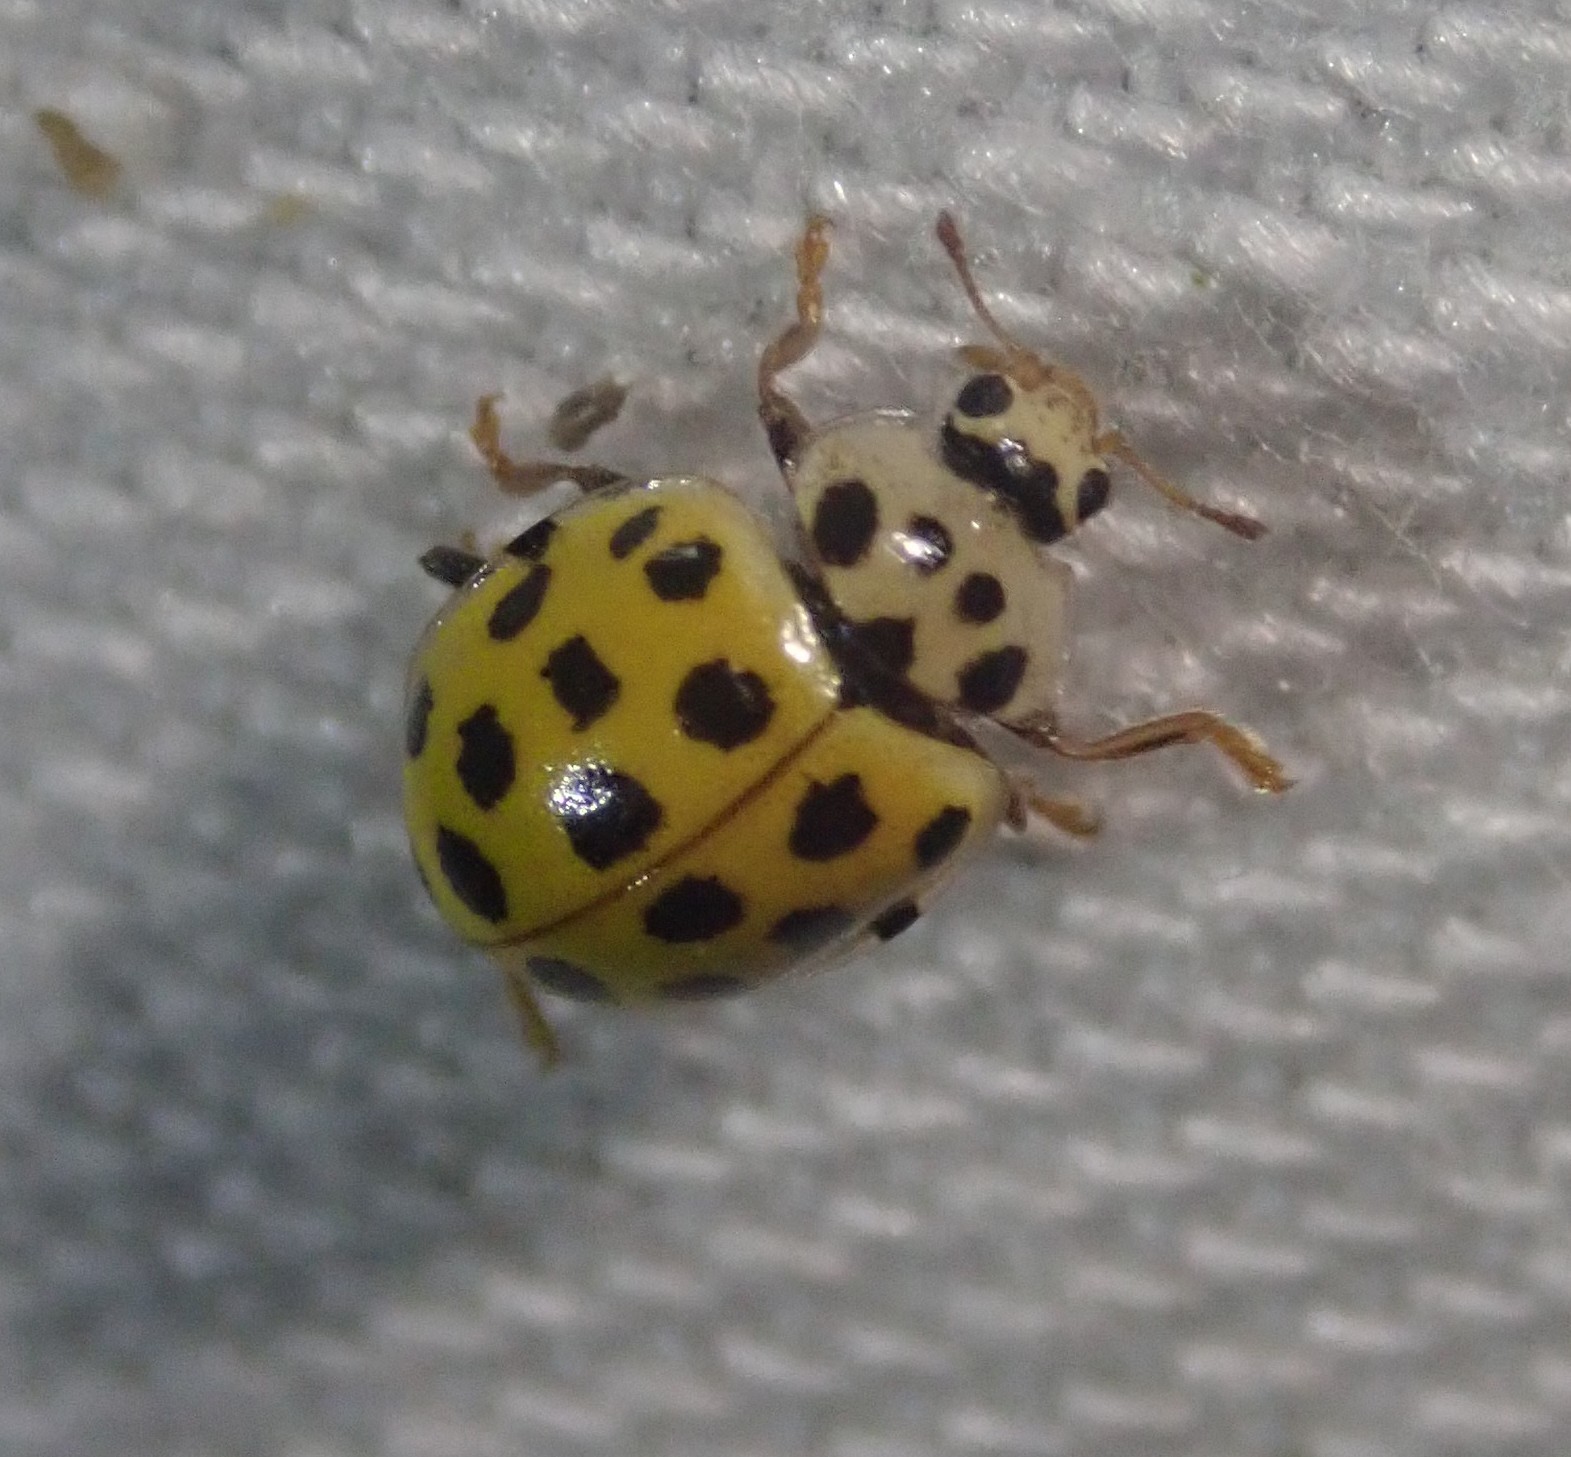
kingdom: Animalia
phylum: Arthropoda
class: Insecta
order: Coleoptera
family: Coccinellidae
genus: Psyllobora
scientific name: Psyllobora vigintiduopunctata
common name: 22-spot ladybird
